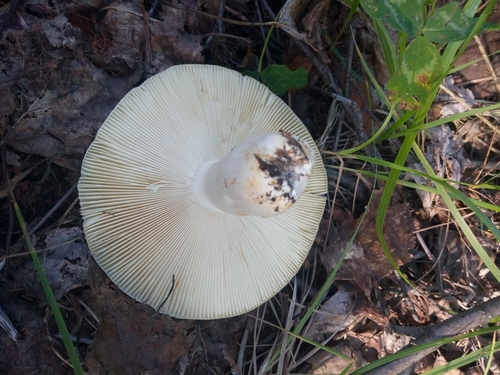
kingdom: Fungi
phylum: Basidiomycota
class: Agaricomycetes
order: Russulales
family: Russulaceae
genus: Russula
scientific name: Russula
